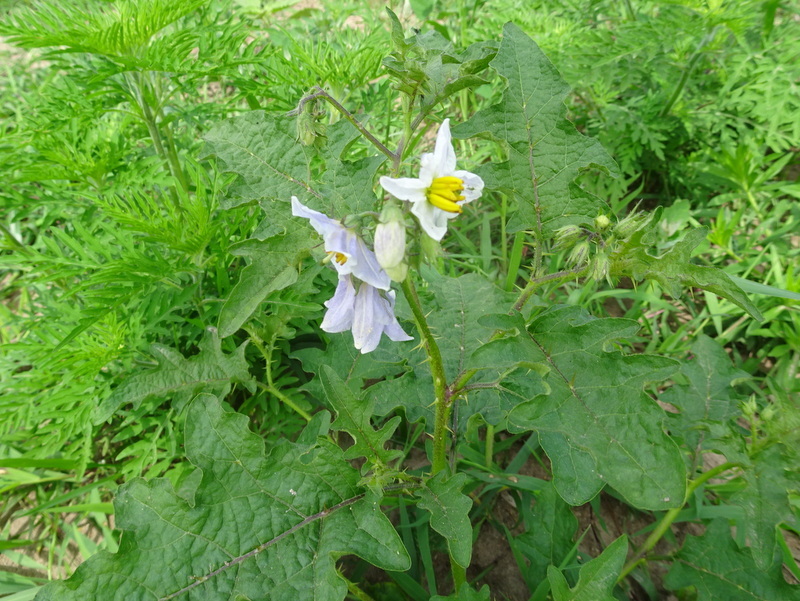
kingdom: Plantae
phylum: Tracheophyta
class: Magnoliopsida
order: Solanales
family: Solanaceae
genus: Solanum
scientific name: Solanum carolinense
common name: Horse-nettle
